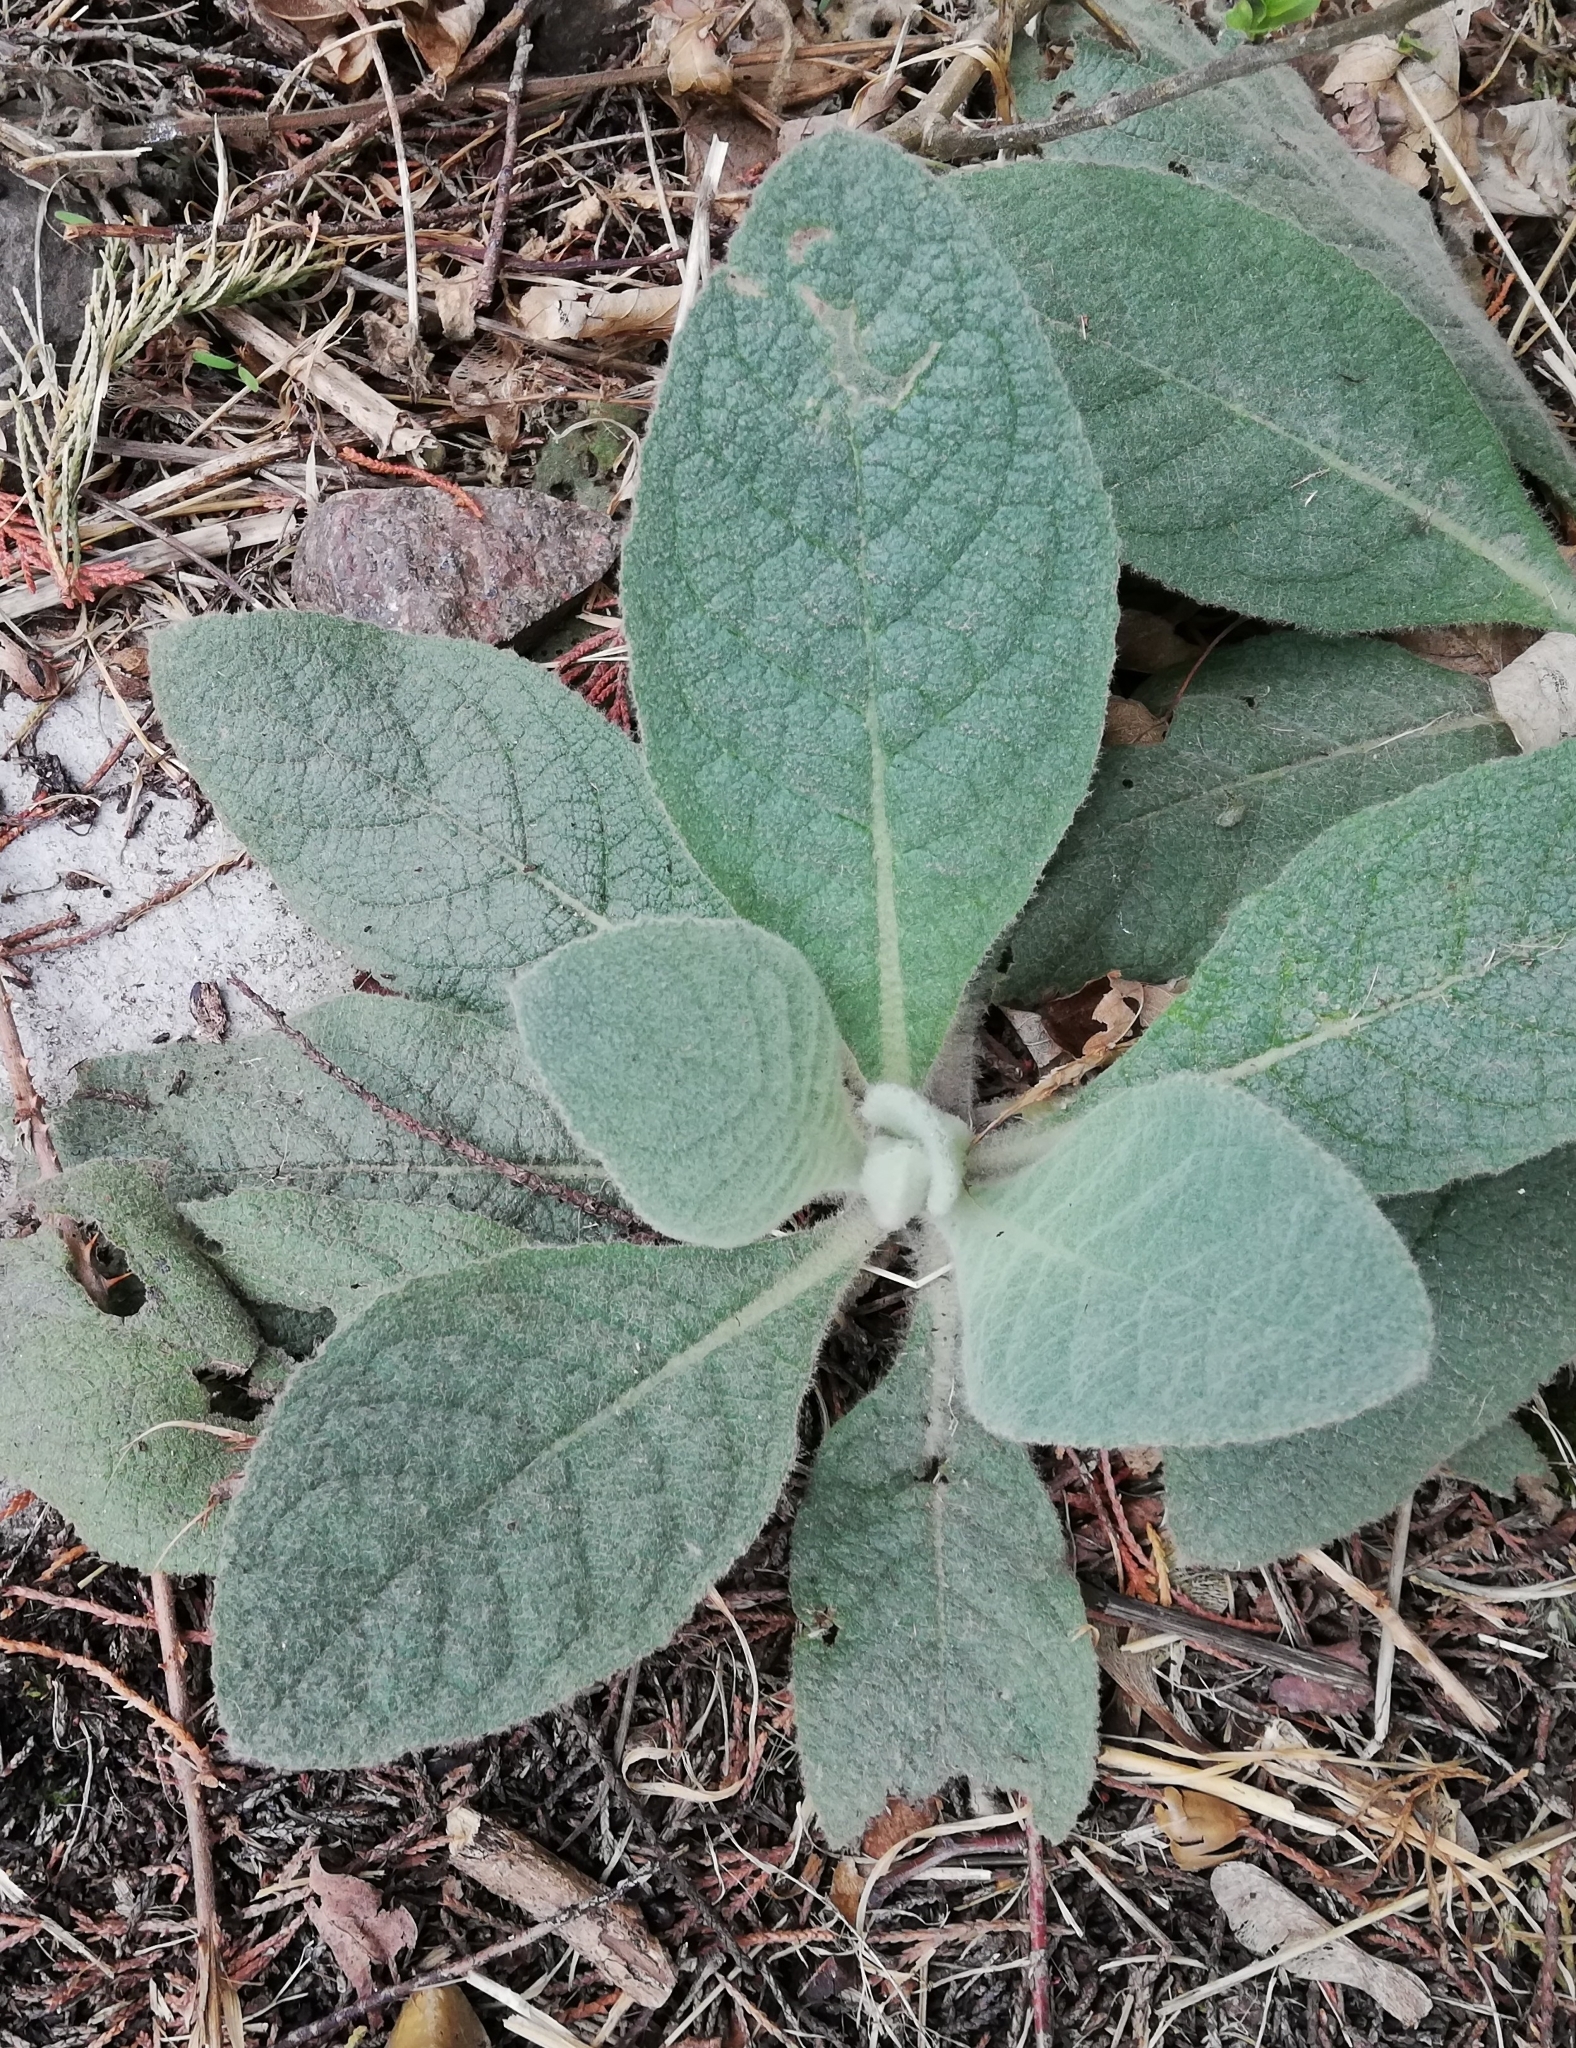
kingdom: Plantae
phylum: Tracheophyta
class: Magnoliopsida
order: Lamiales
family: Scrophulariaceae
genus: Verbascum
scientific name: Verbascum thapsus
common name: Common mullein
